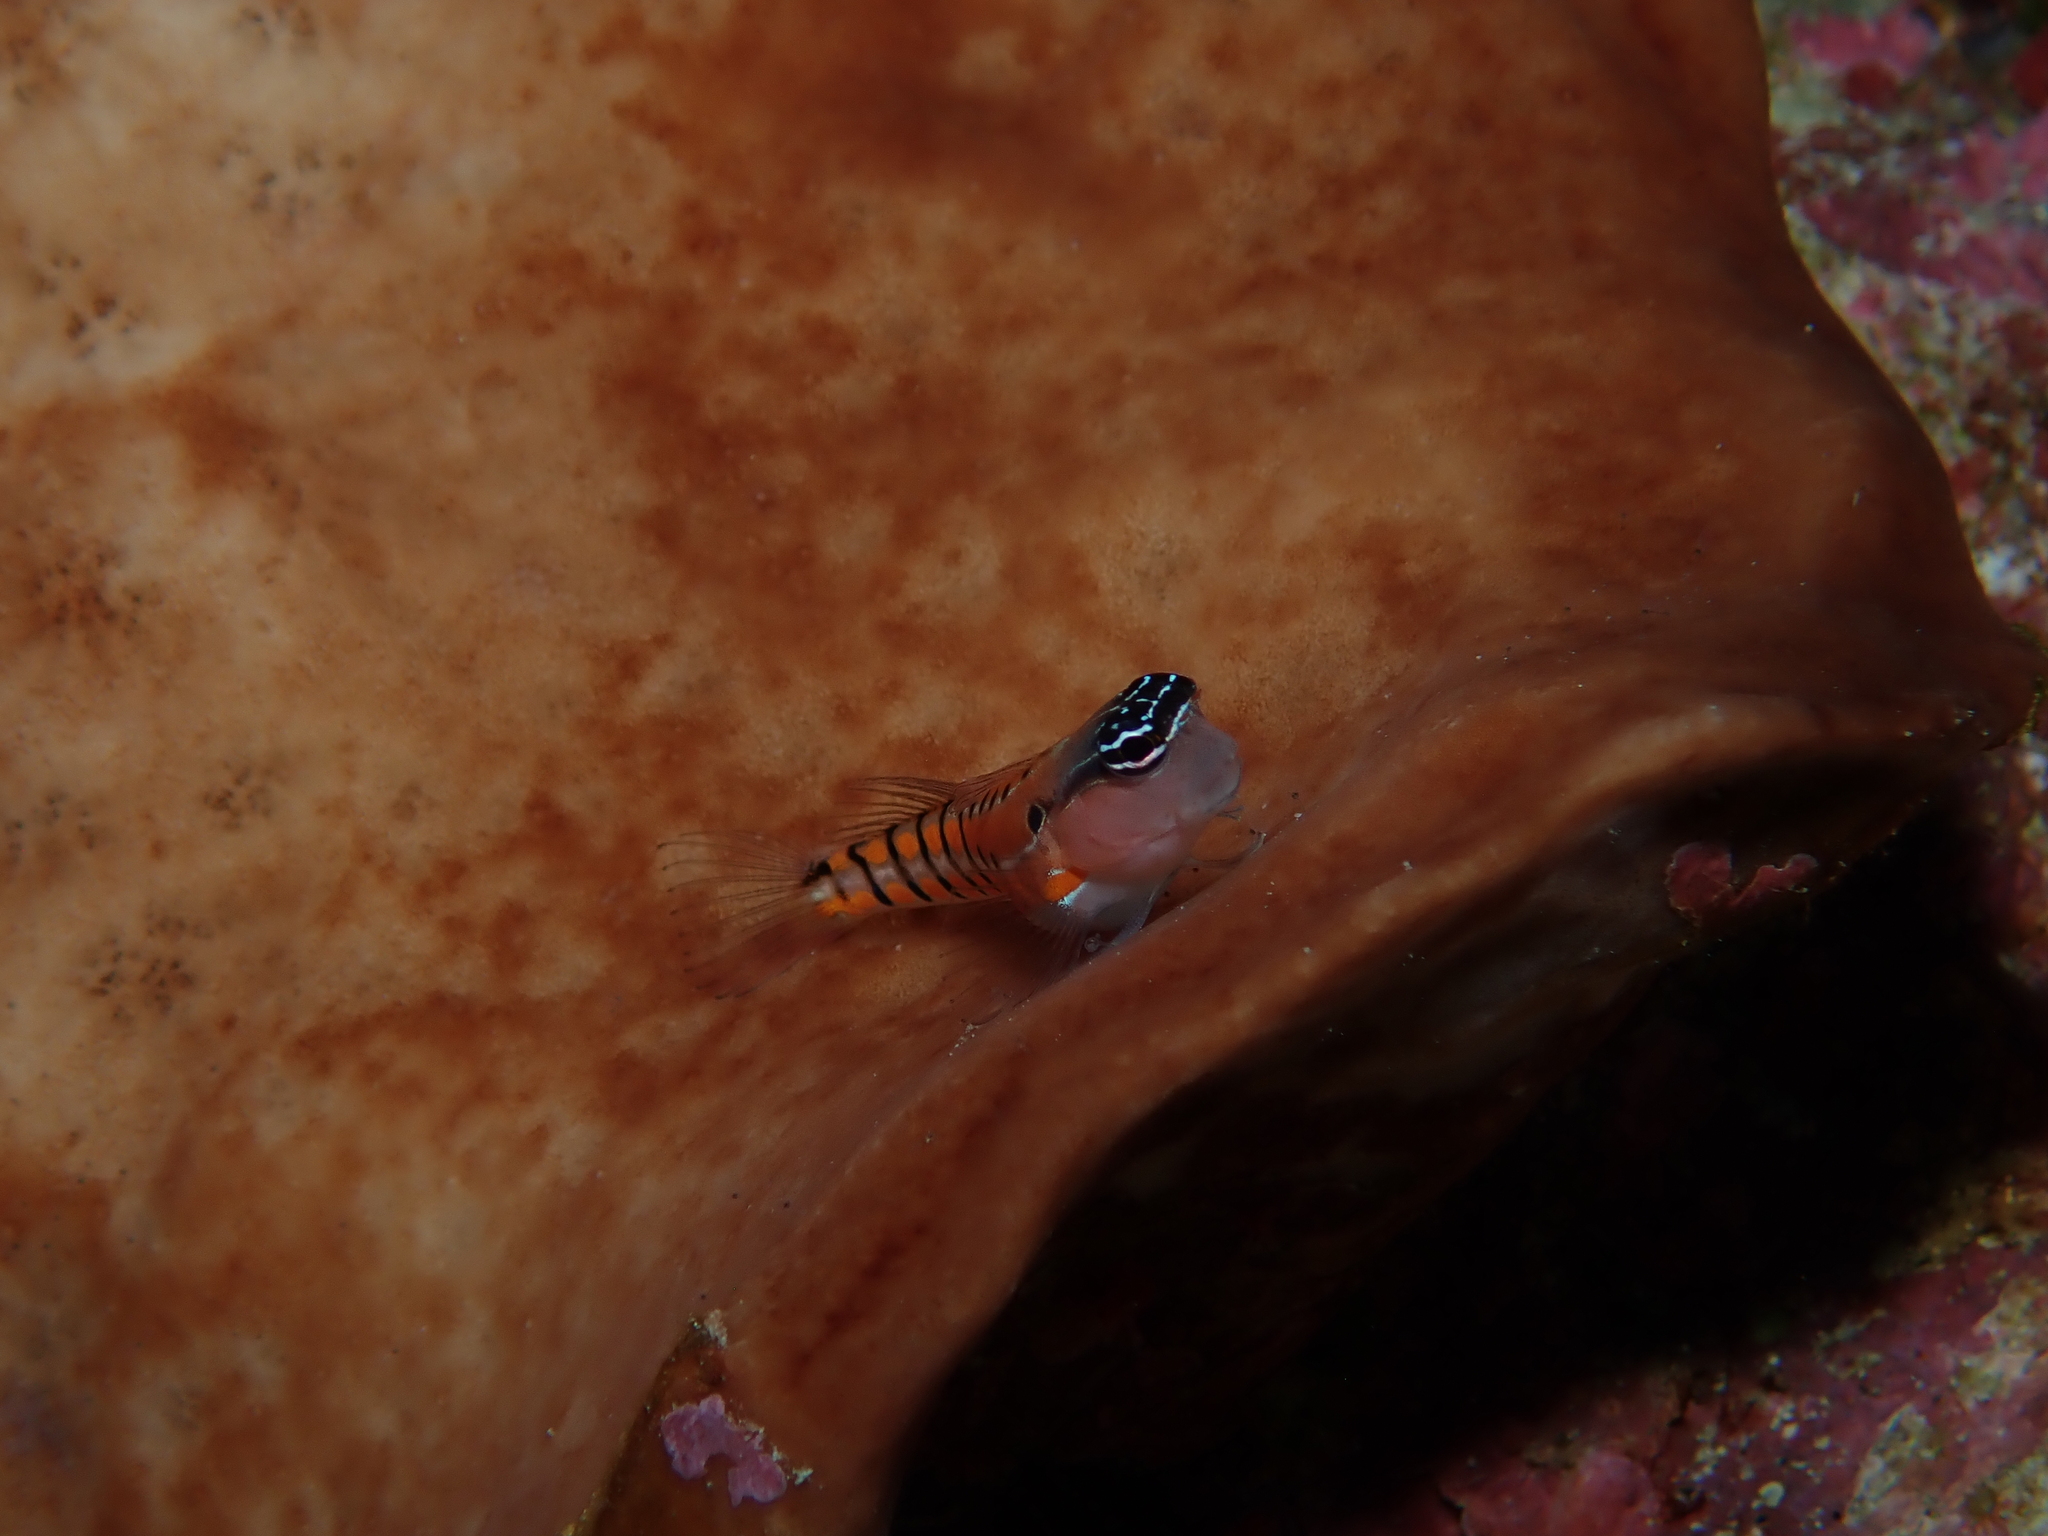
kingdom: Animalia
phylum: Chordata
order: Perciformes
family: Blenniidae
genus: Ecsenius
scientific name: Ecsenius axelrodi
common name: Axelrod's clown blenny
